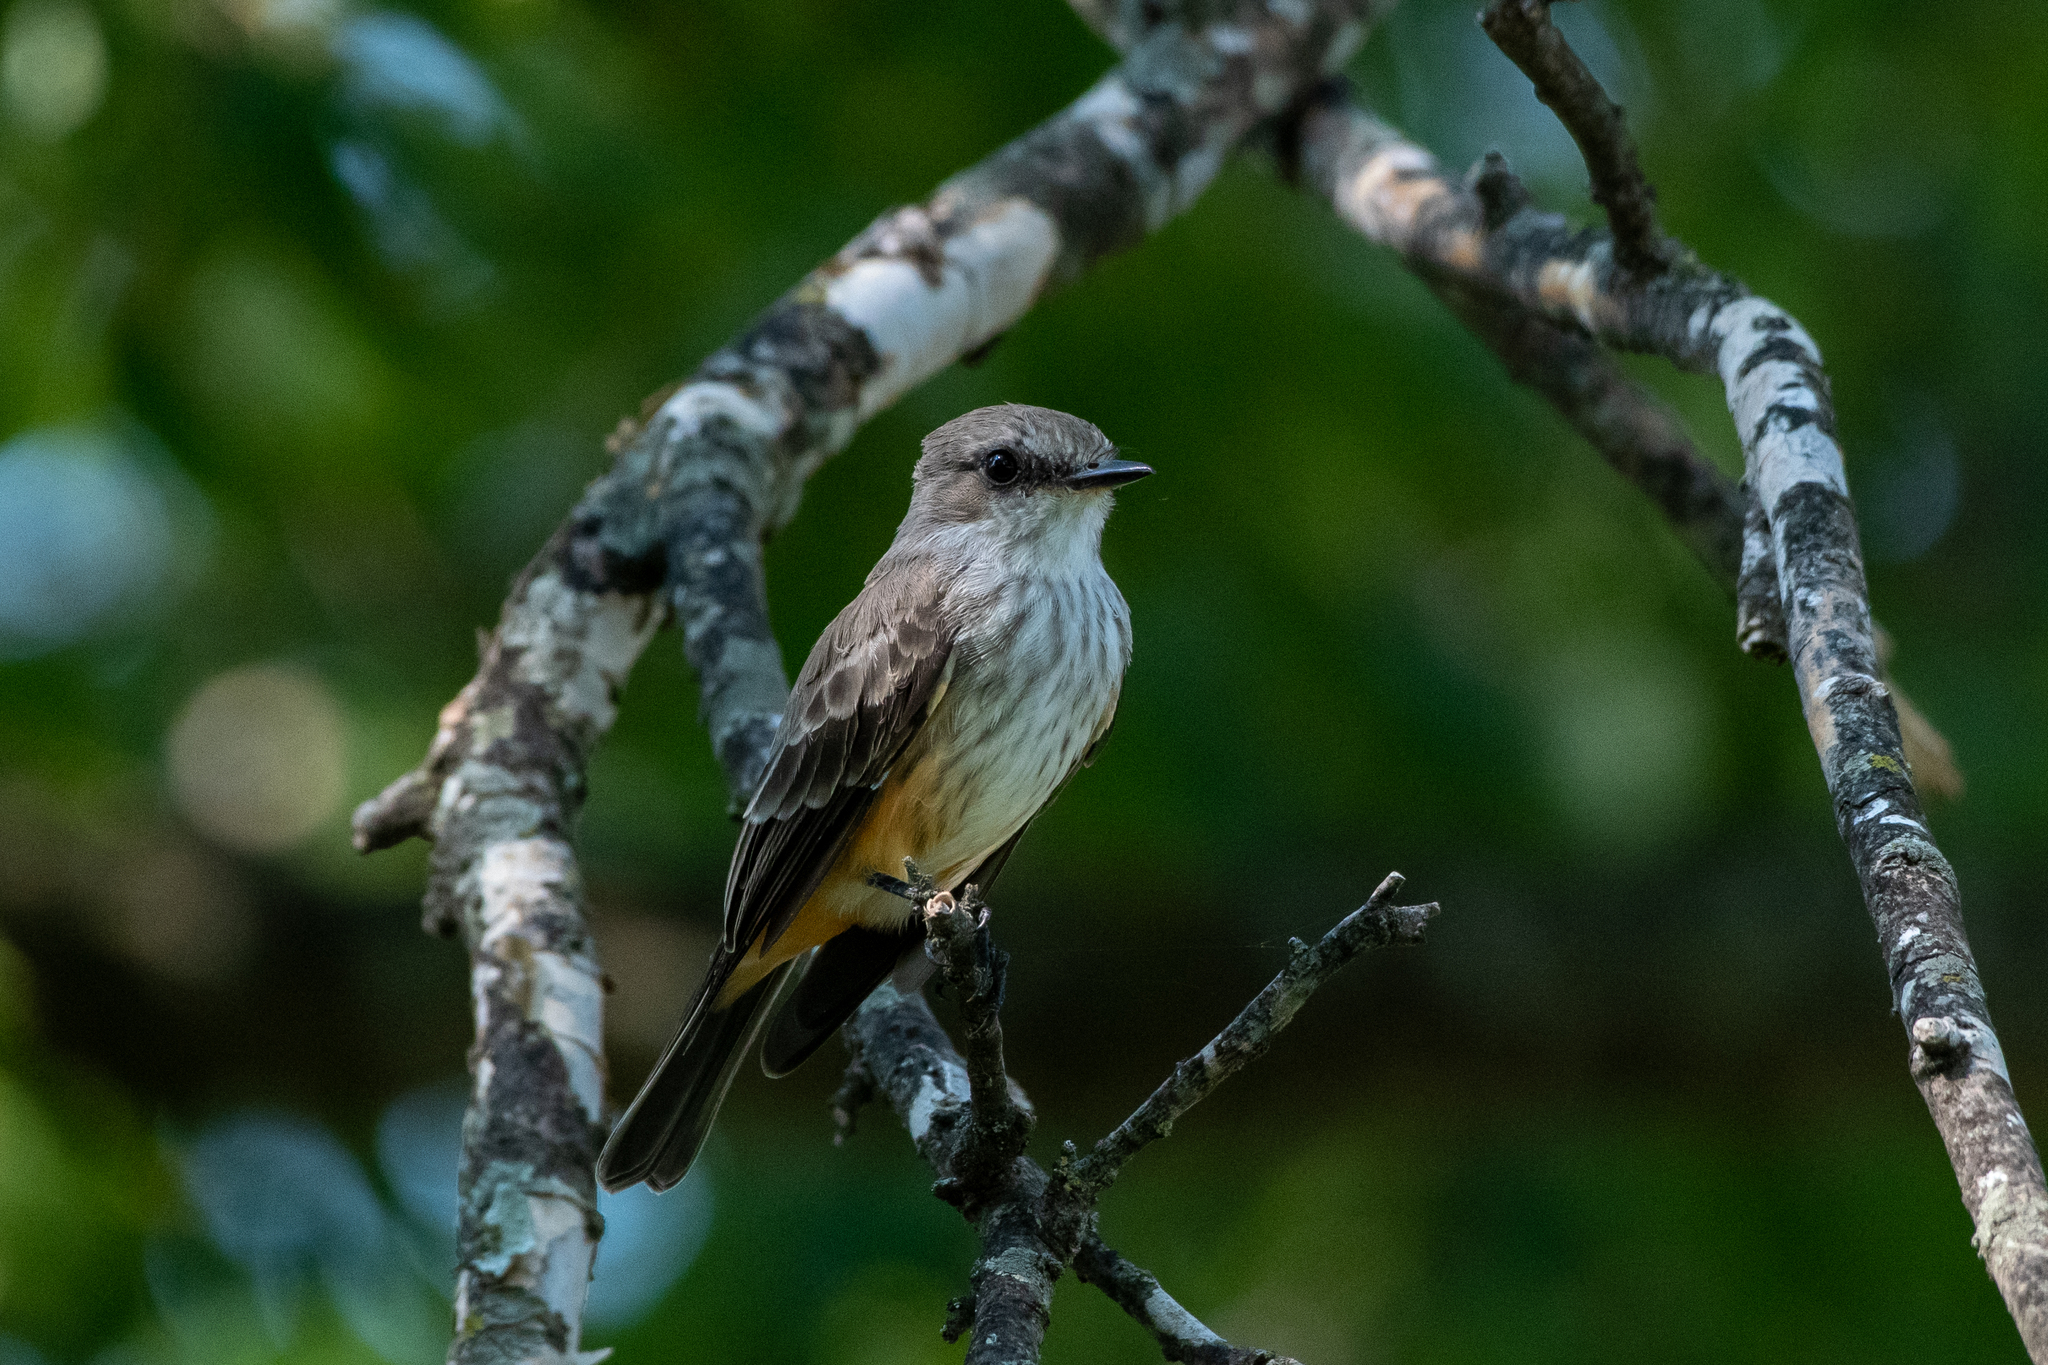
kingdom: Animalia
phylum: Chordata
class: Aves
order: Passeriformes
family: Tyrannidae
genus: Pyrocephalus
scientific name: Pyrocephalus rubinus
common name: Vermilion flycatcher
